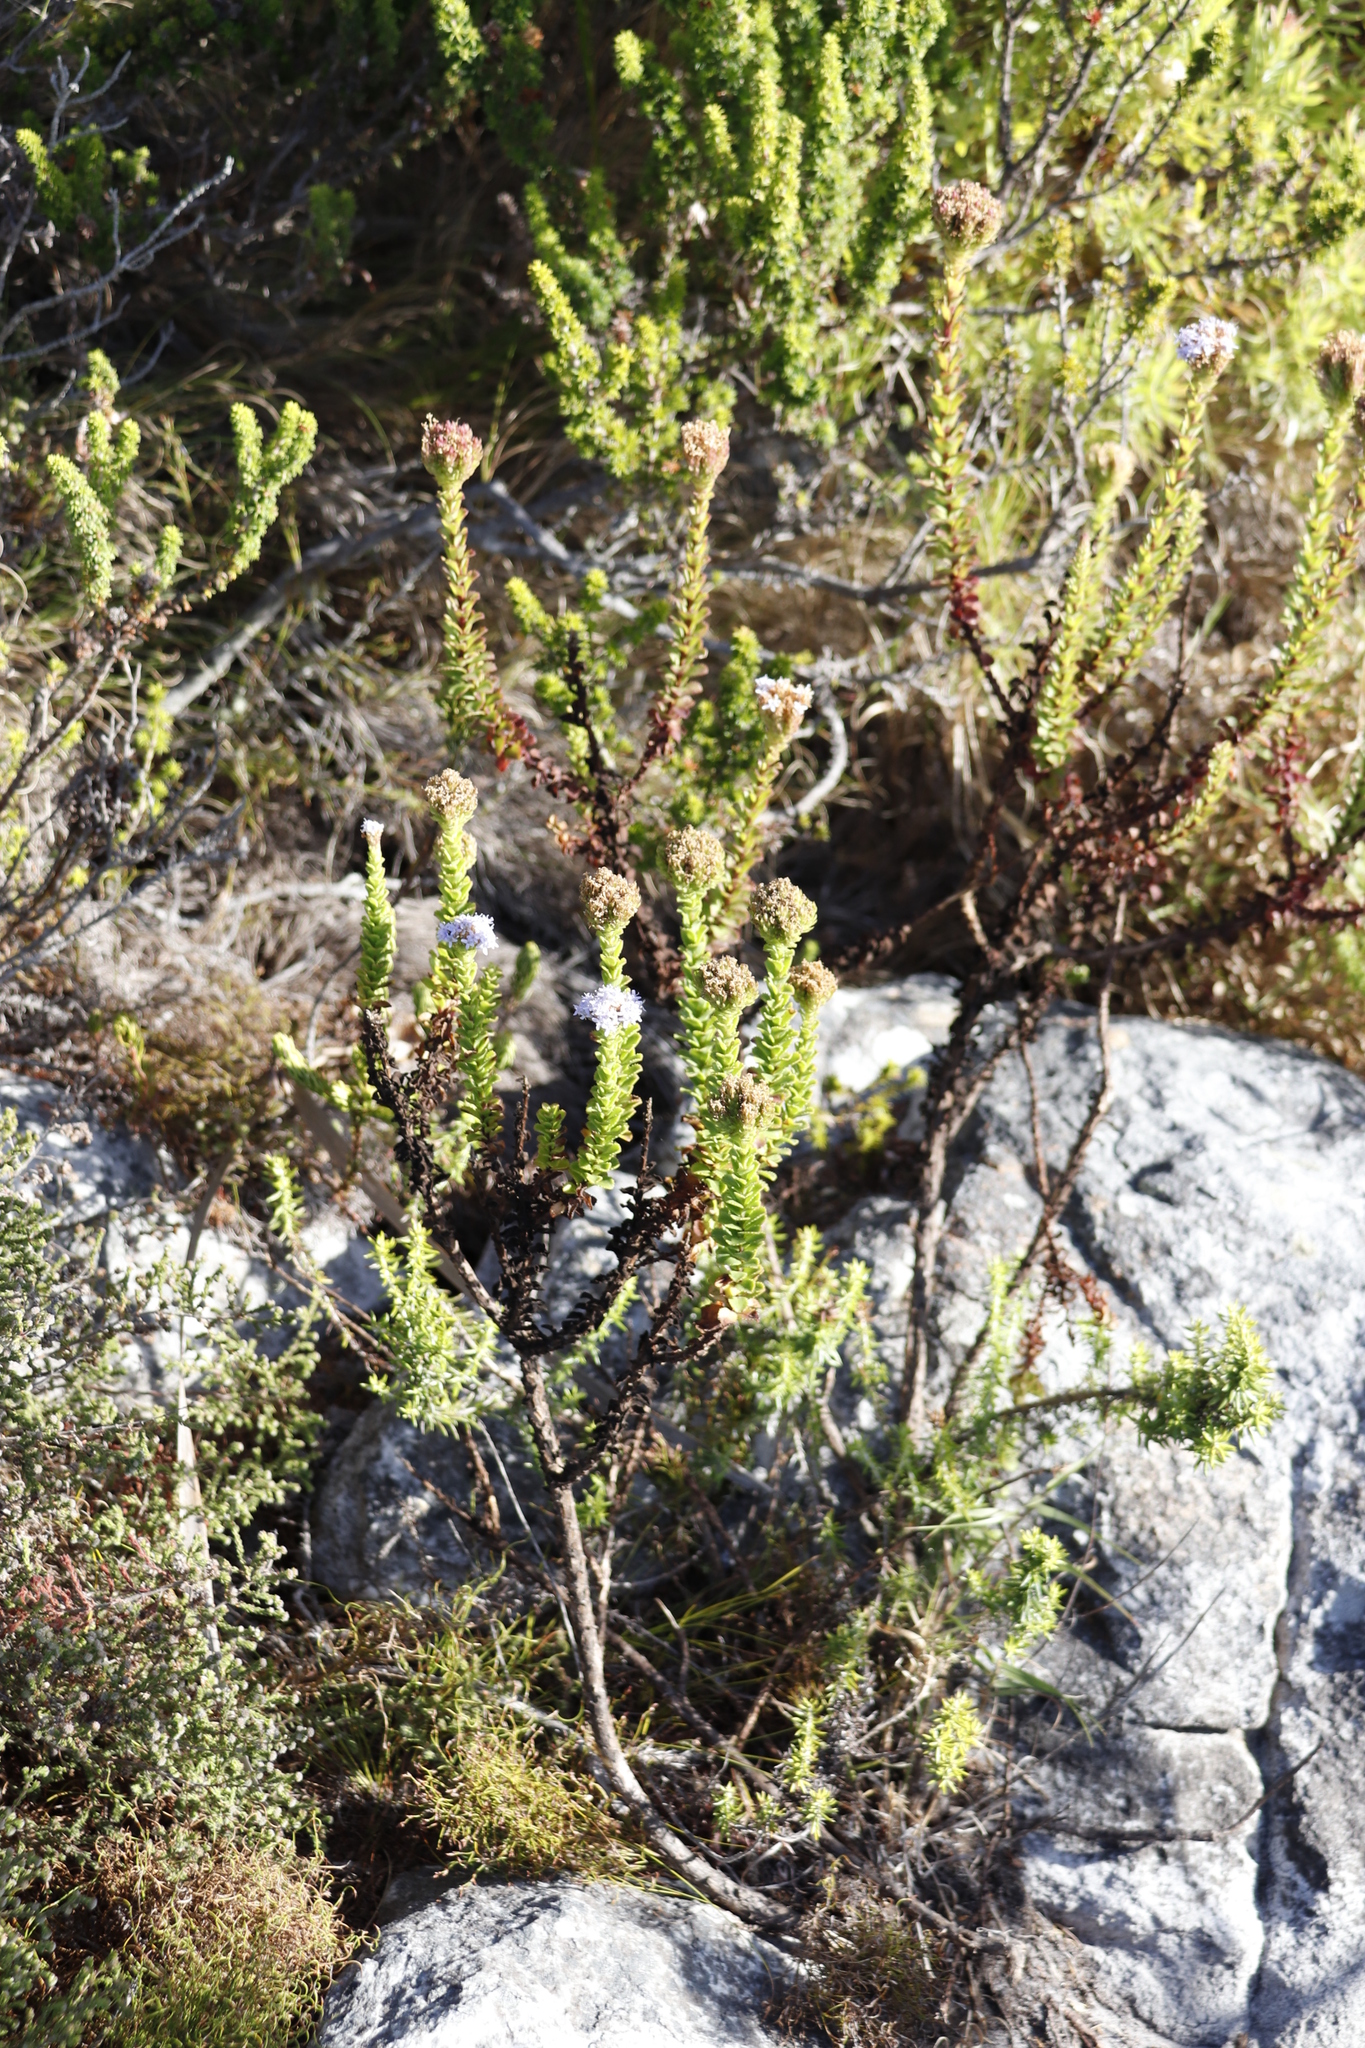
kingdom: Plantae
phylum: Tracheophyta
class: Magnoliopsida
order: Lamiales
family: Scrophulariaceae
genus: Pseudoselago
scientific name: Pseudoselago serrata
